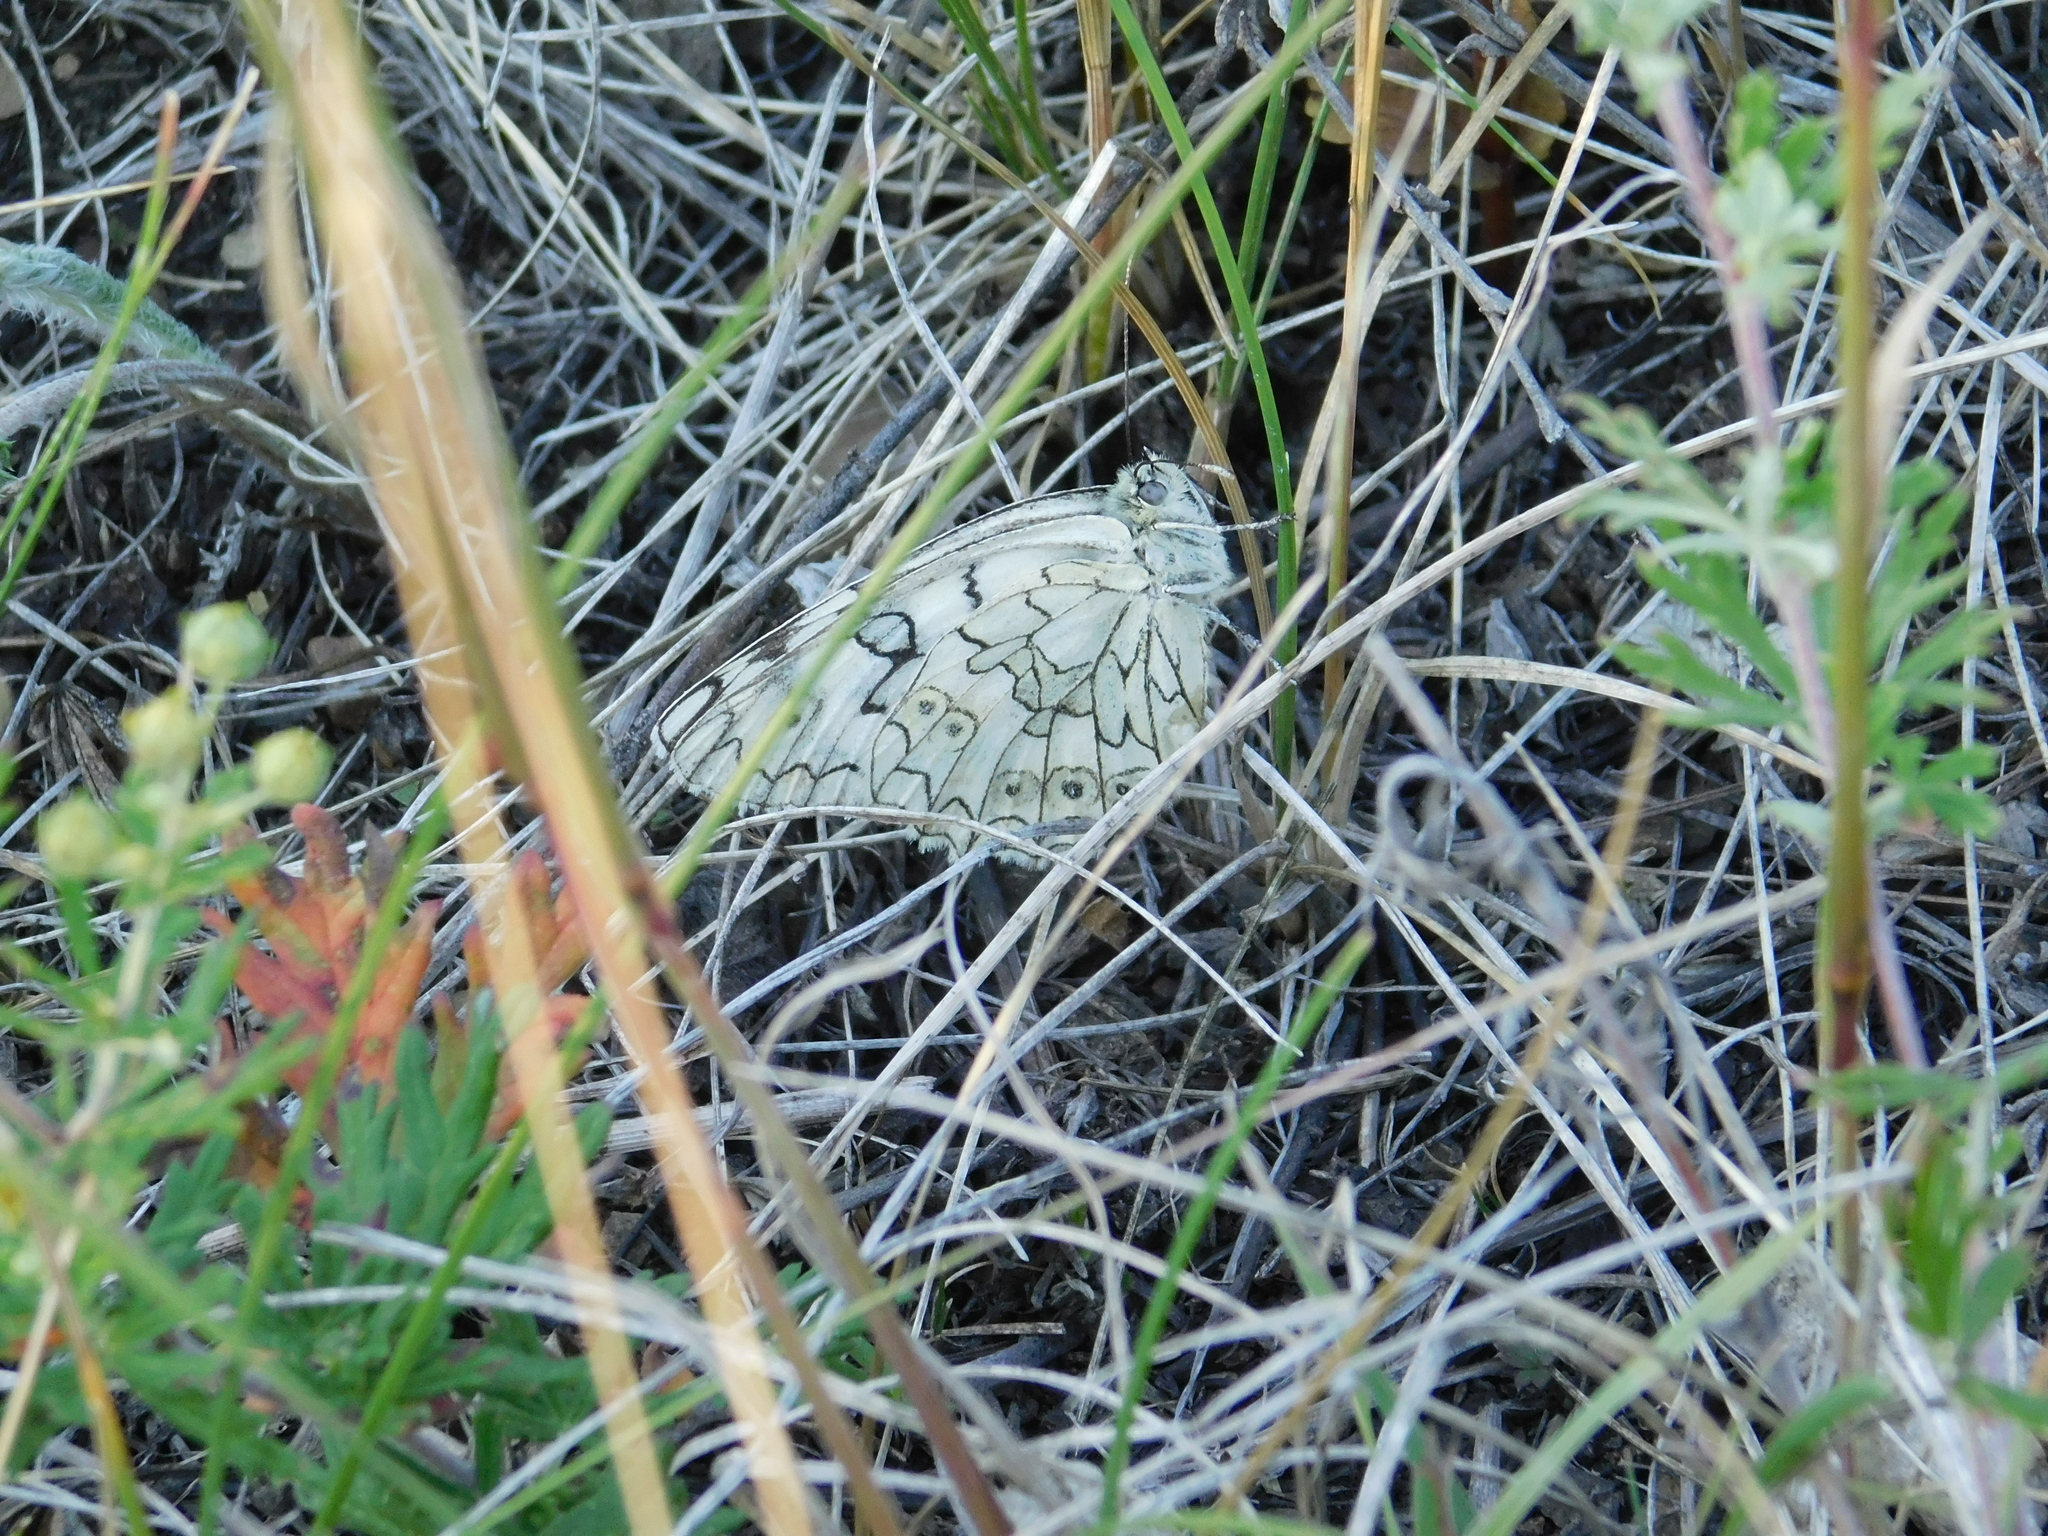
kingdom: Animalia
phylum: Arthropoda
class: Insecta
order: Lepidoptera
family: Nymphalidae
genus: Melanargia
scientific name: Melanargia japygia
